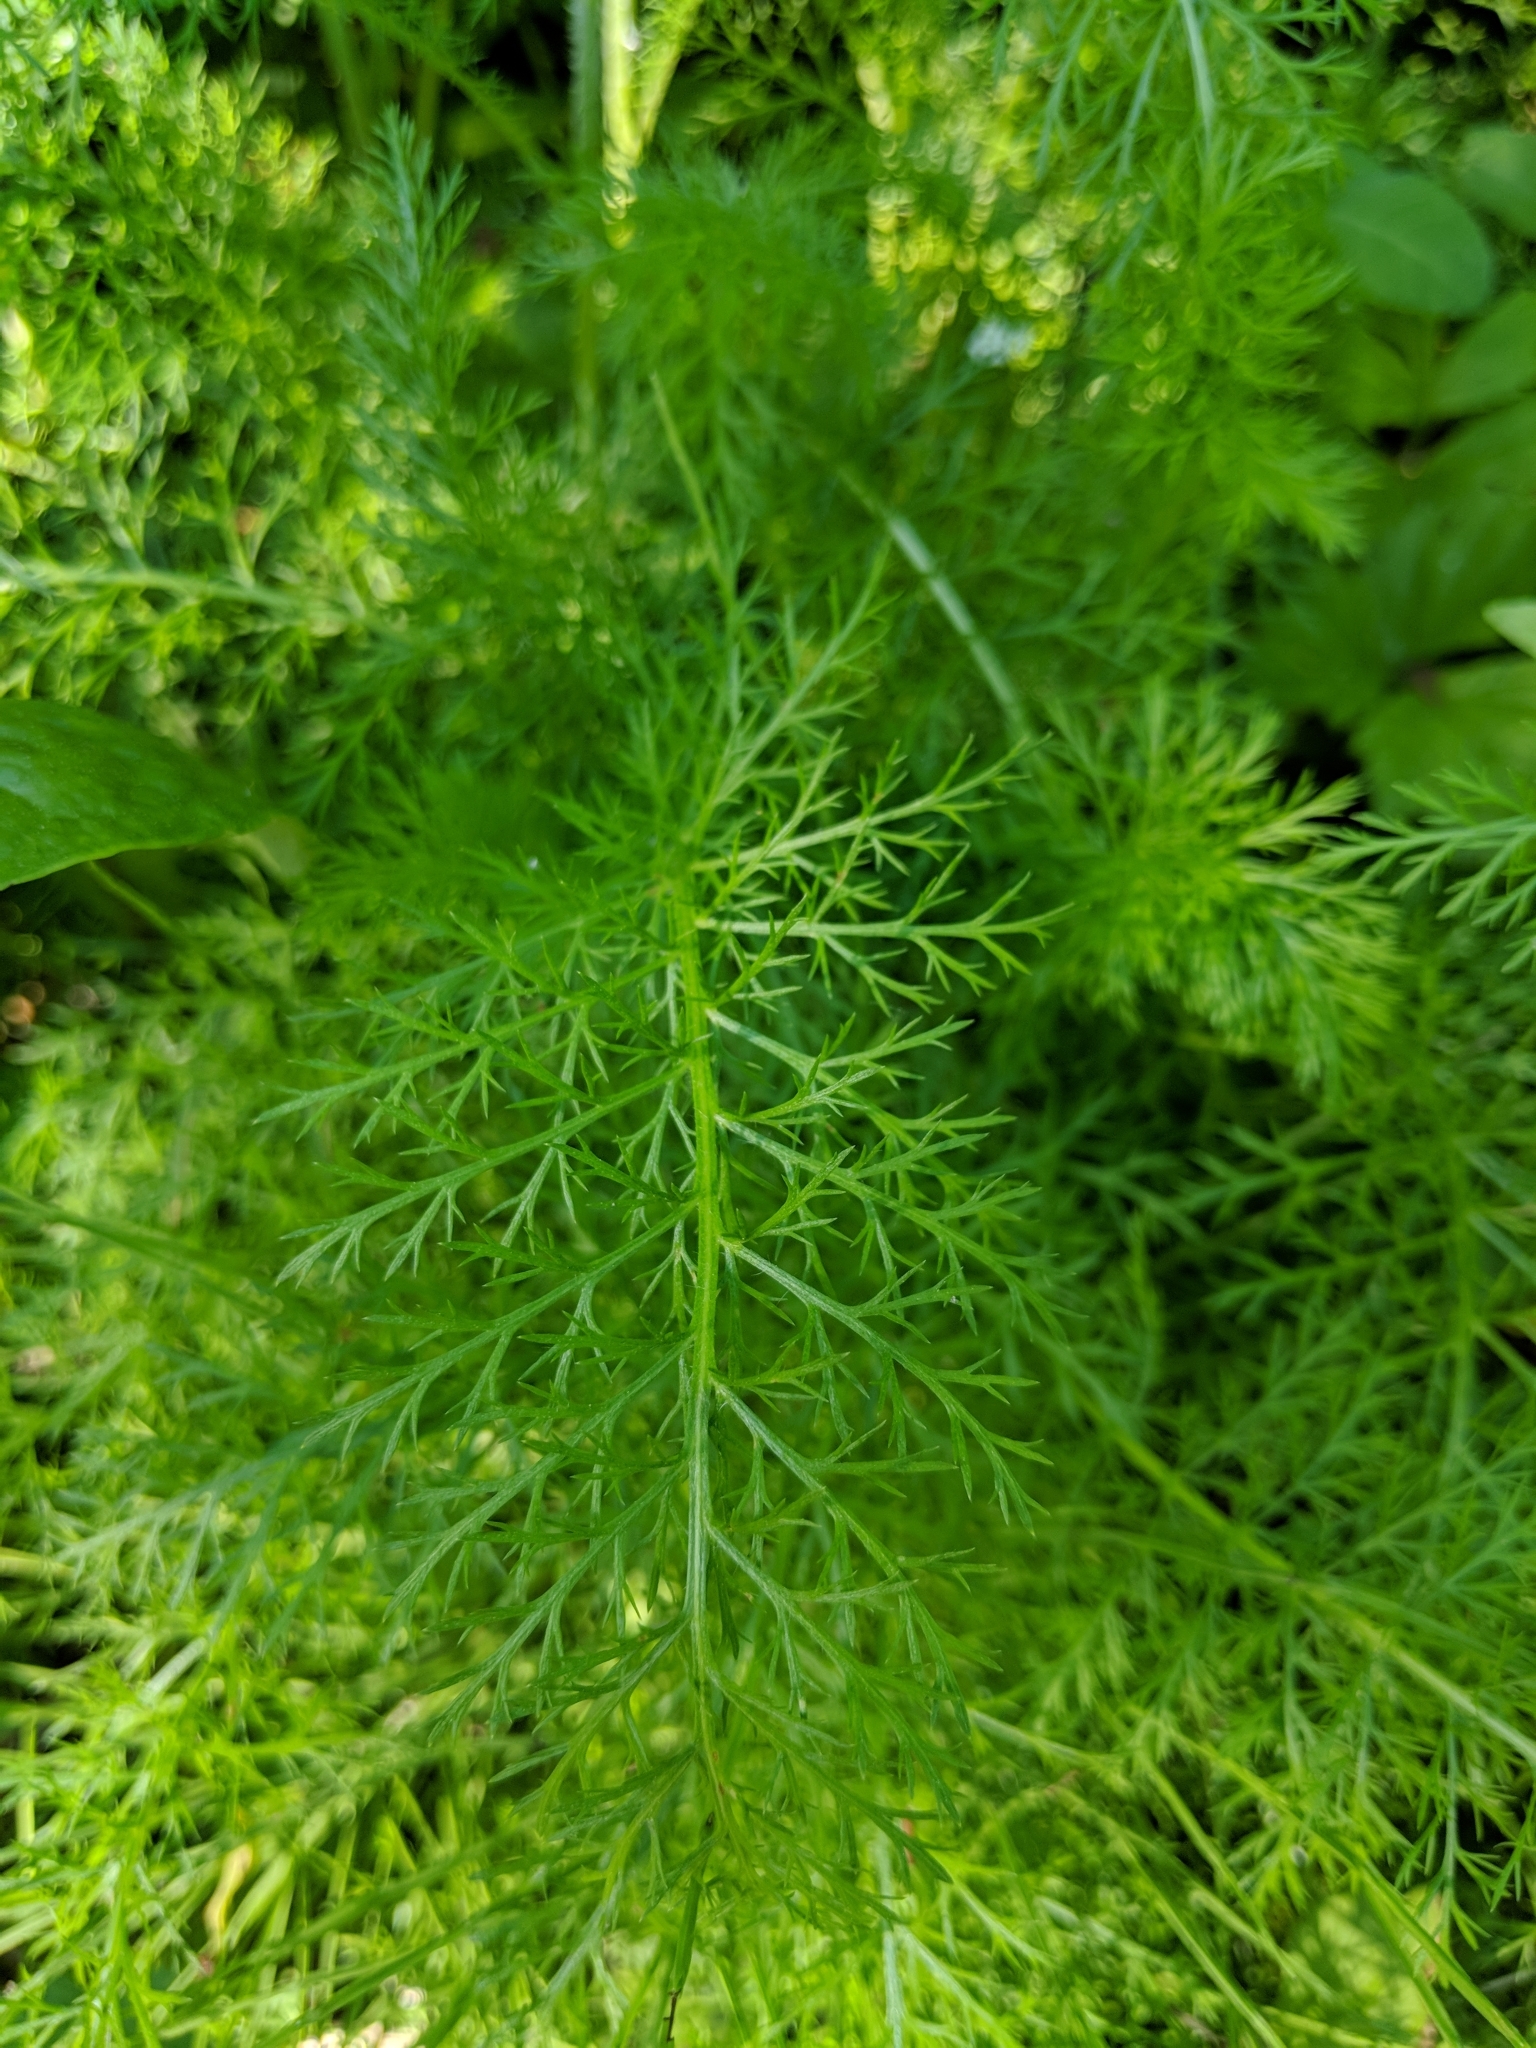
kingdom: Plantae
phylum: Tracheophyta
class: Magnoliopsida
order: Asterales
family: Asteraceae
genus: Achillea
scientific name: Achillea millefolium
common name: Yarrow
